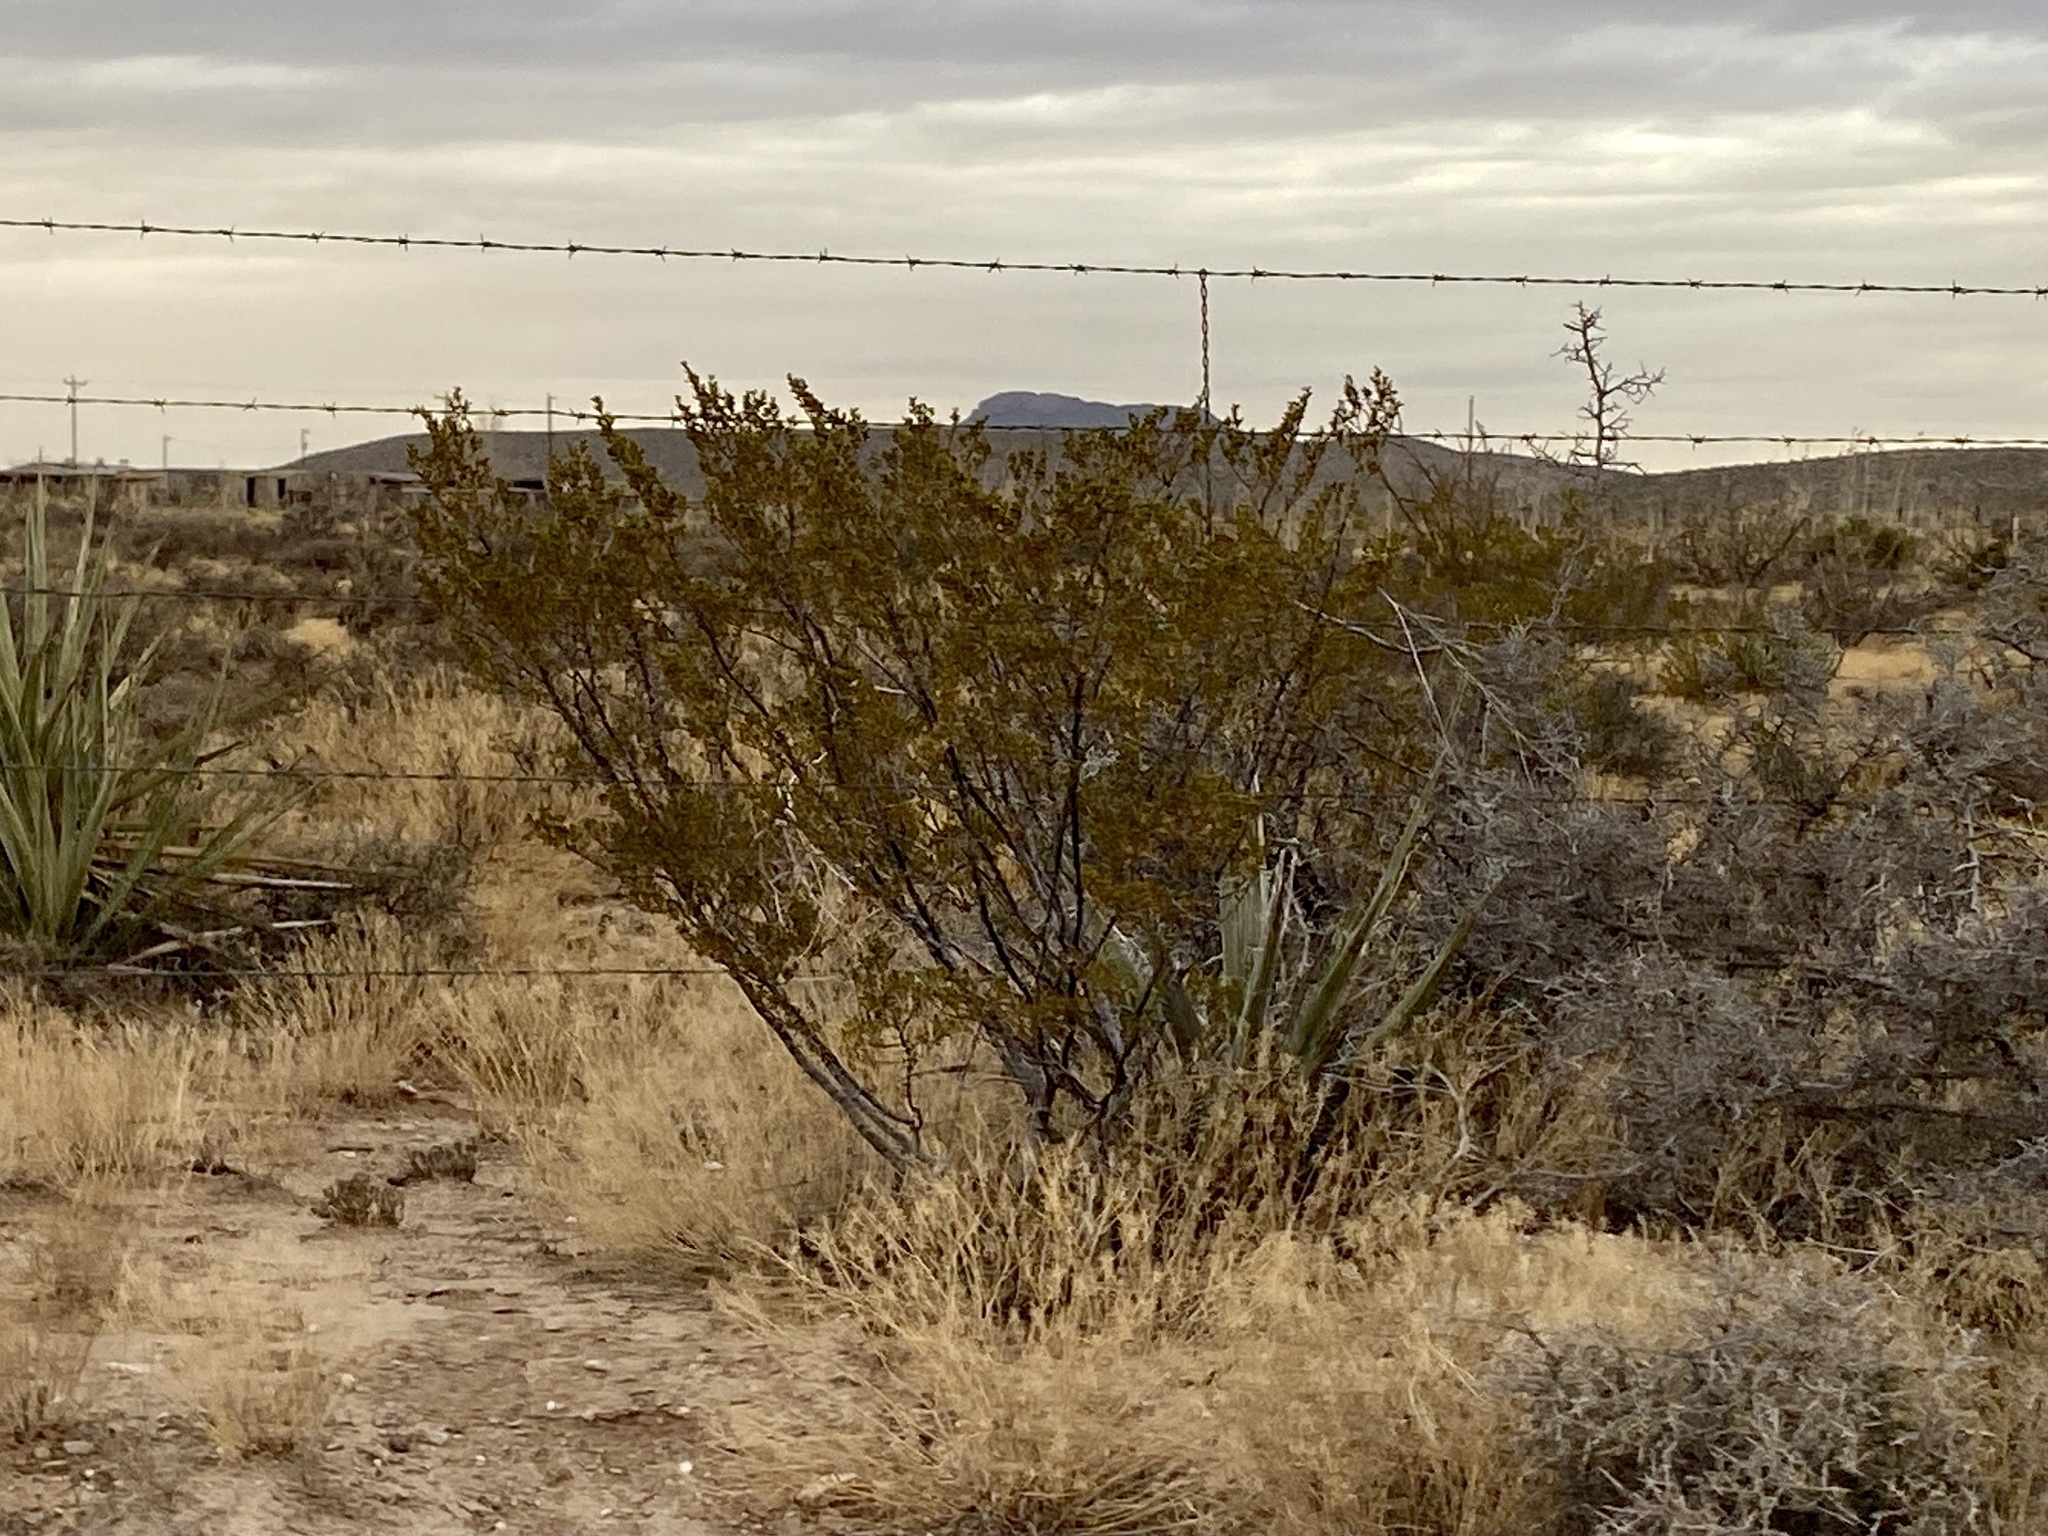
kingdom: Plantae
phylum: Tracheophyta
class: Magnoliopsida
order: Zygophyllales
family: Zygophyllaceae
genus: Larrea
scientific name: Larrea tridentata
